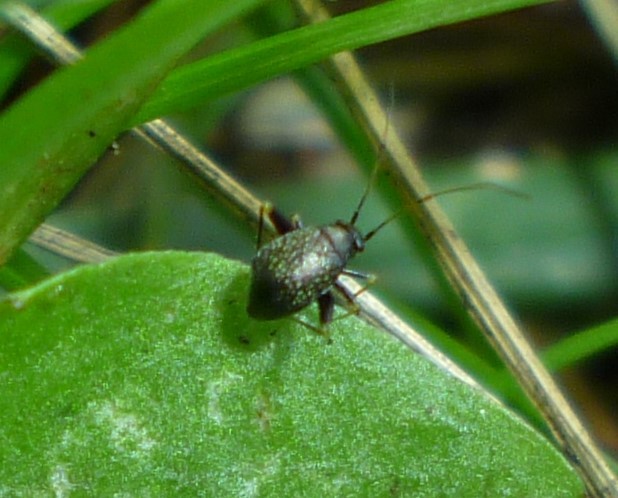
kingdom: Animalia
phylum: Arthropoda
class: Insecta
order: Hemiptera
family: Miridae
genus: Microtechnites
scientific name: Microtechnites bractatus
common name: Garden fleahopper
